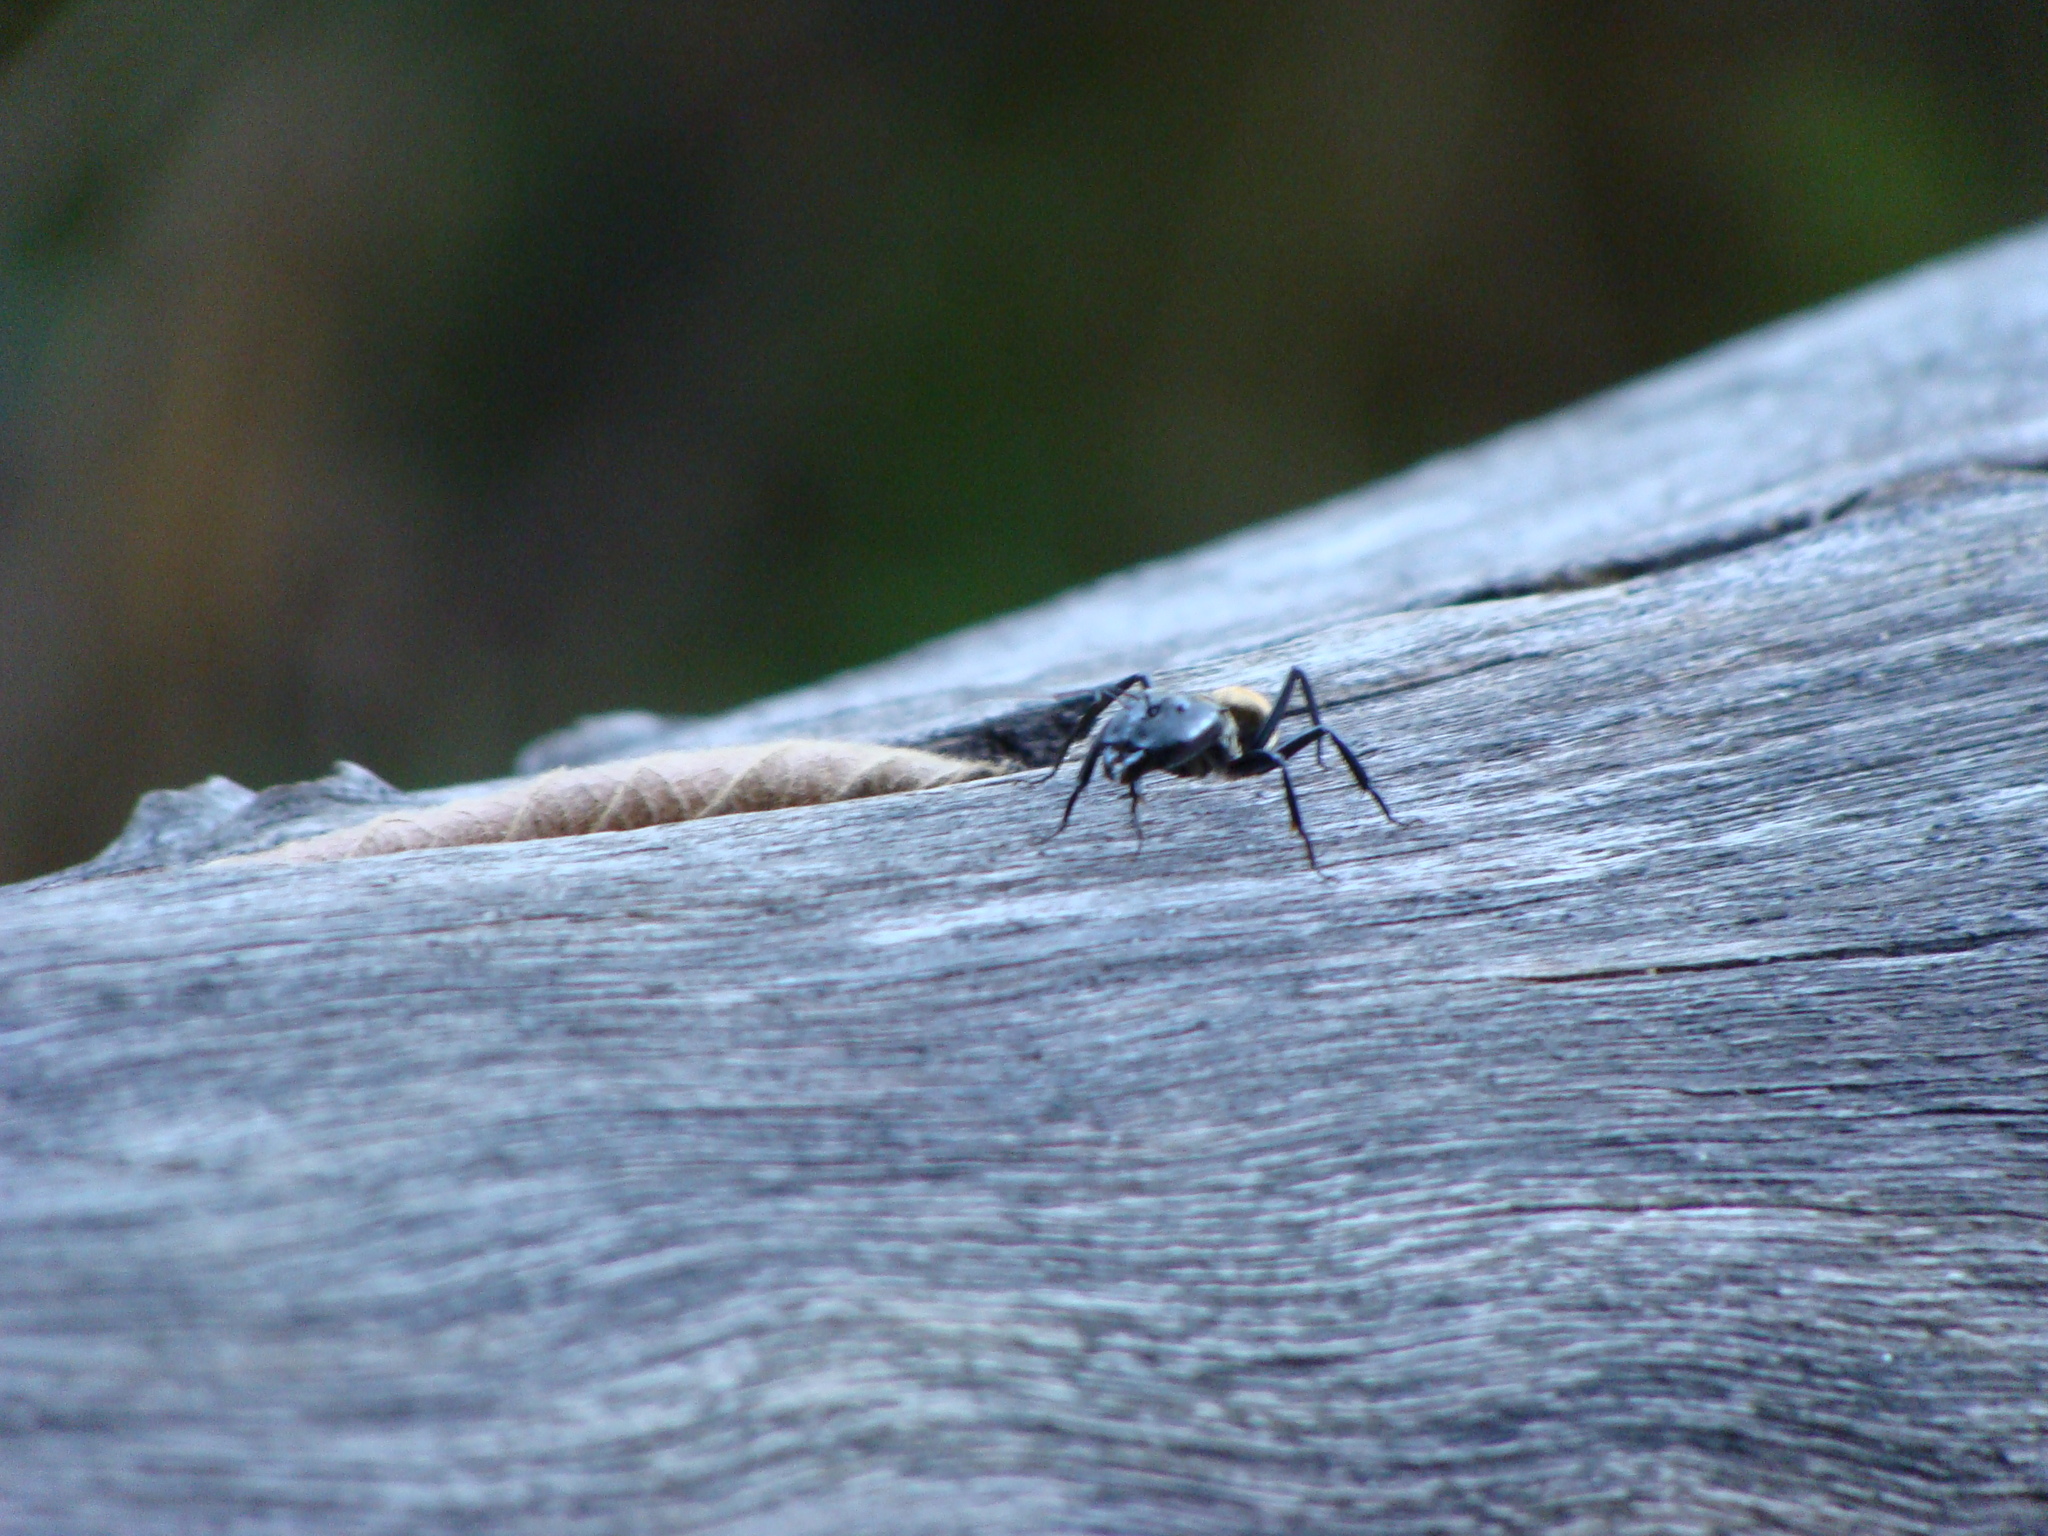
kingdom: Animalia
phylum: Arthropoda
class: Insecta
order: Hymenoptera
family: Formicidae
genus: Camponotus
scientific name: Camponotus sericeiventris
